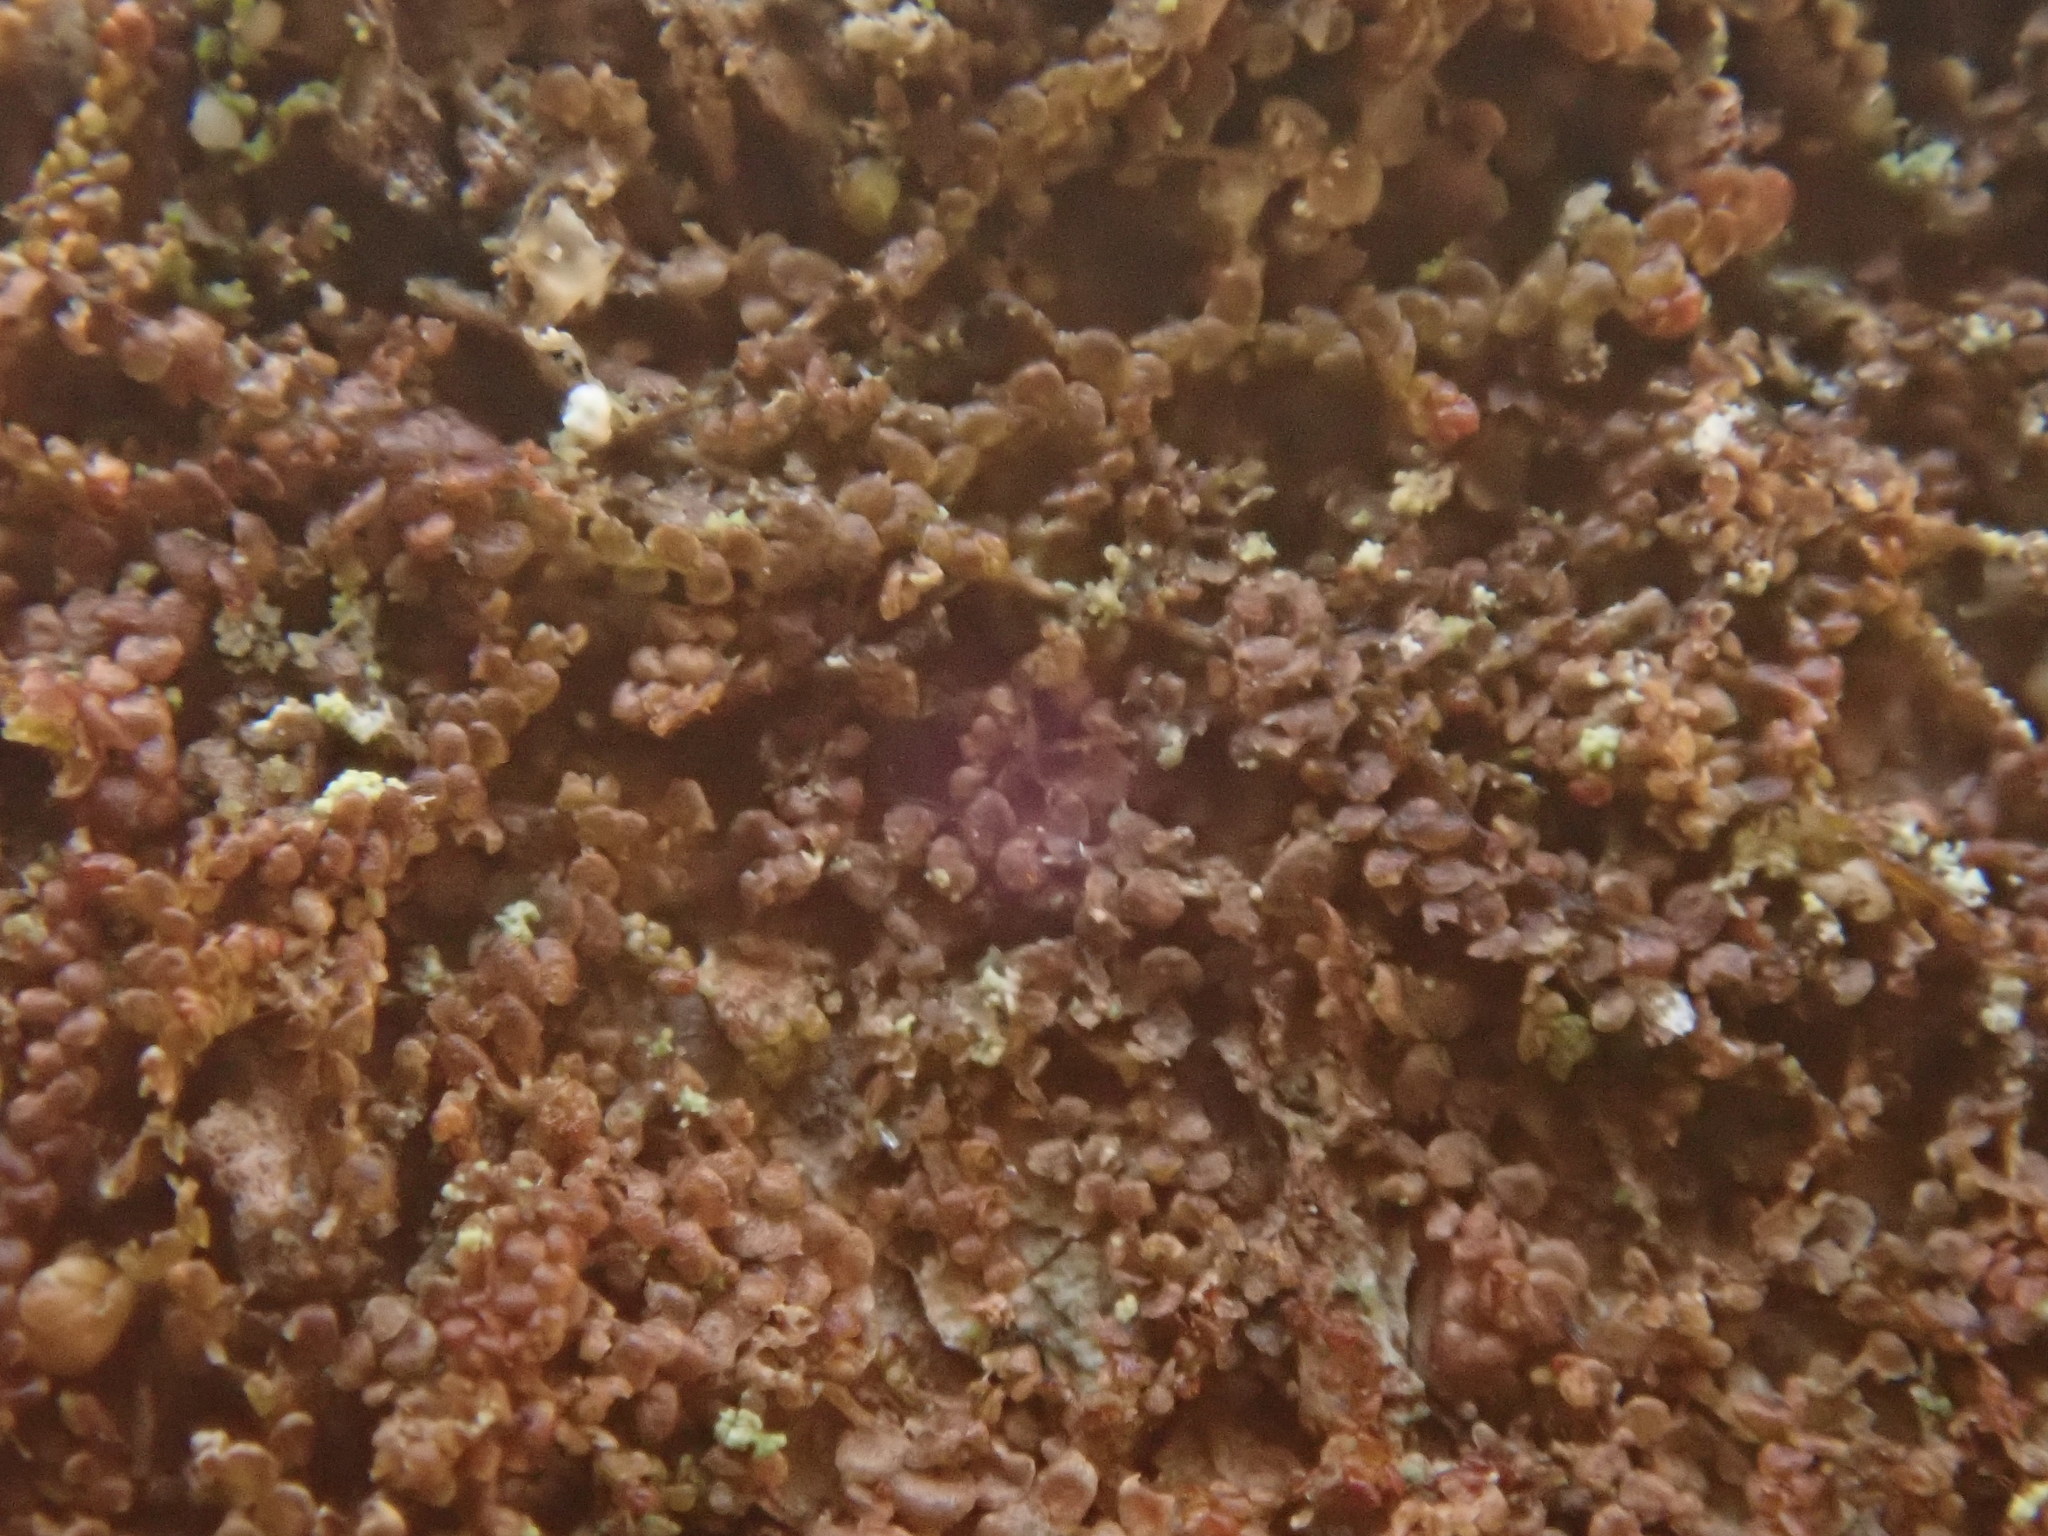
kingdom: Plantae
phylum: Marchantiophyta
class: Jungermanniopsida
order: Porellales
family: Frullaniaceae
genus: Frullania
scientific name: Frullania nisquallensis
